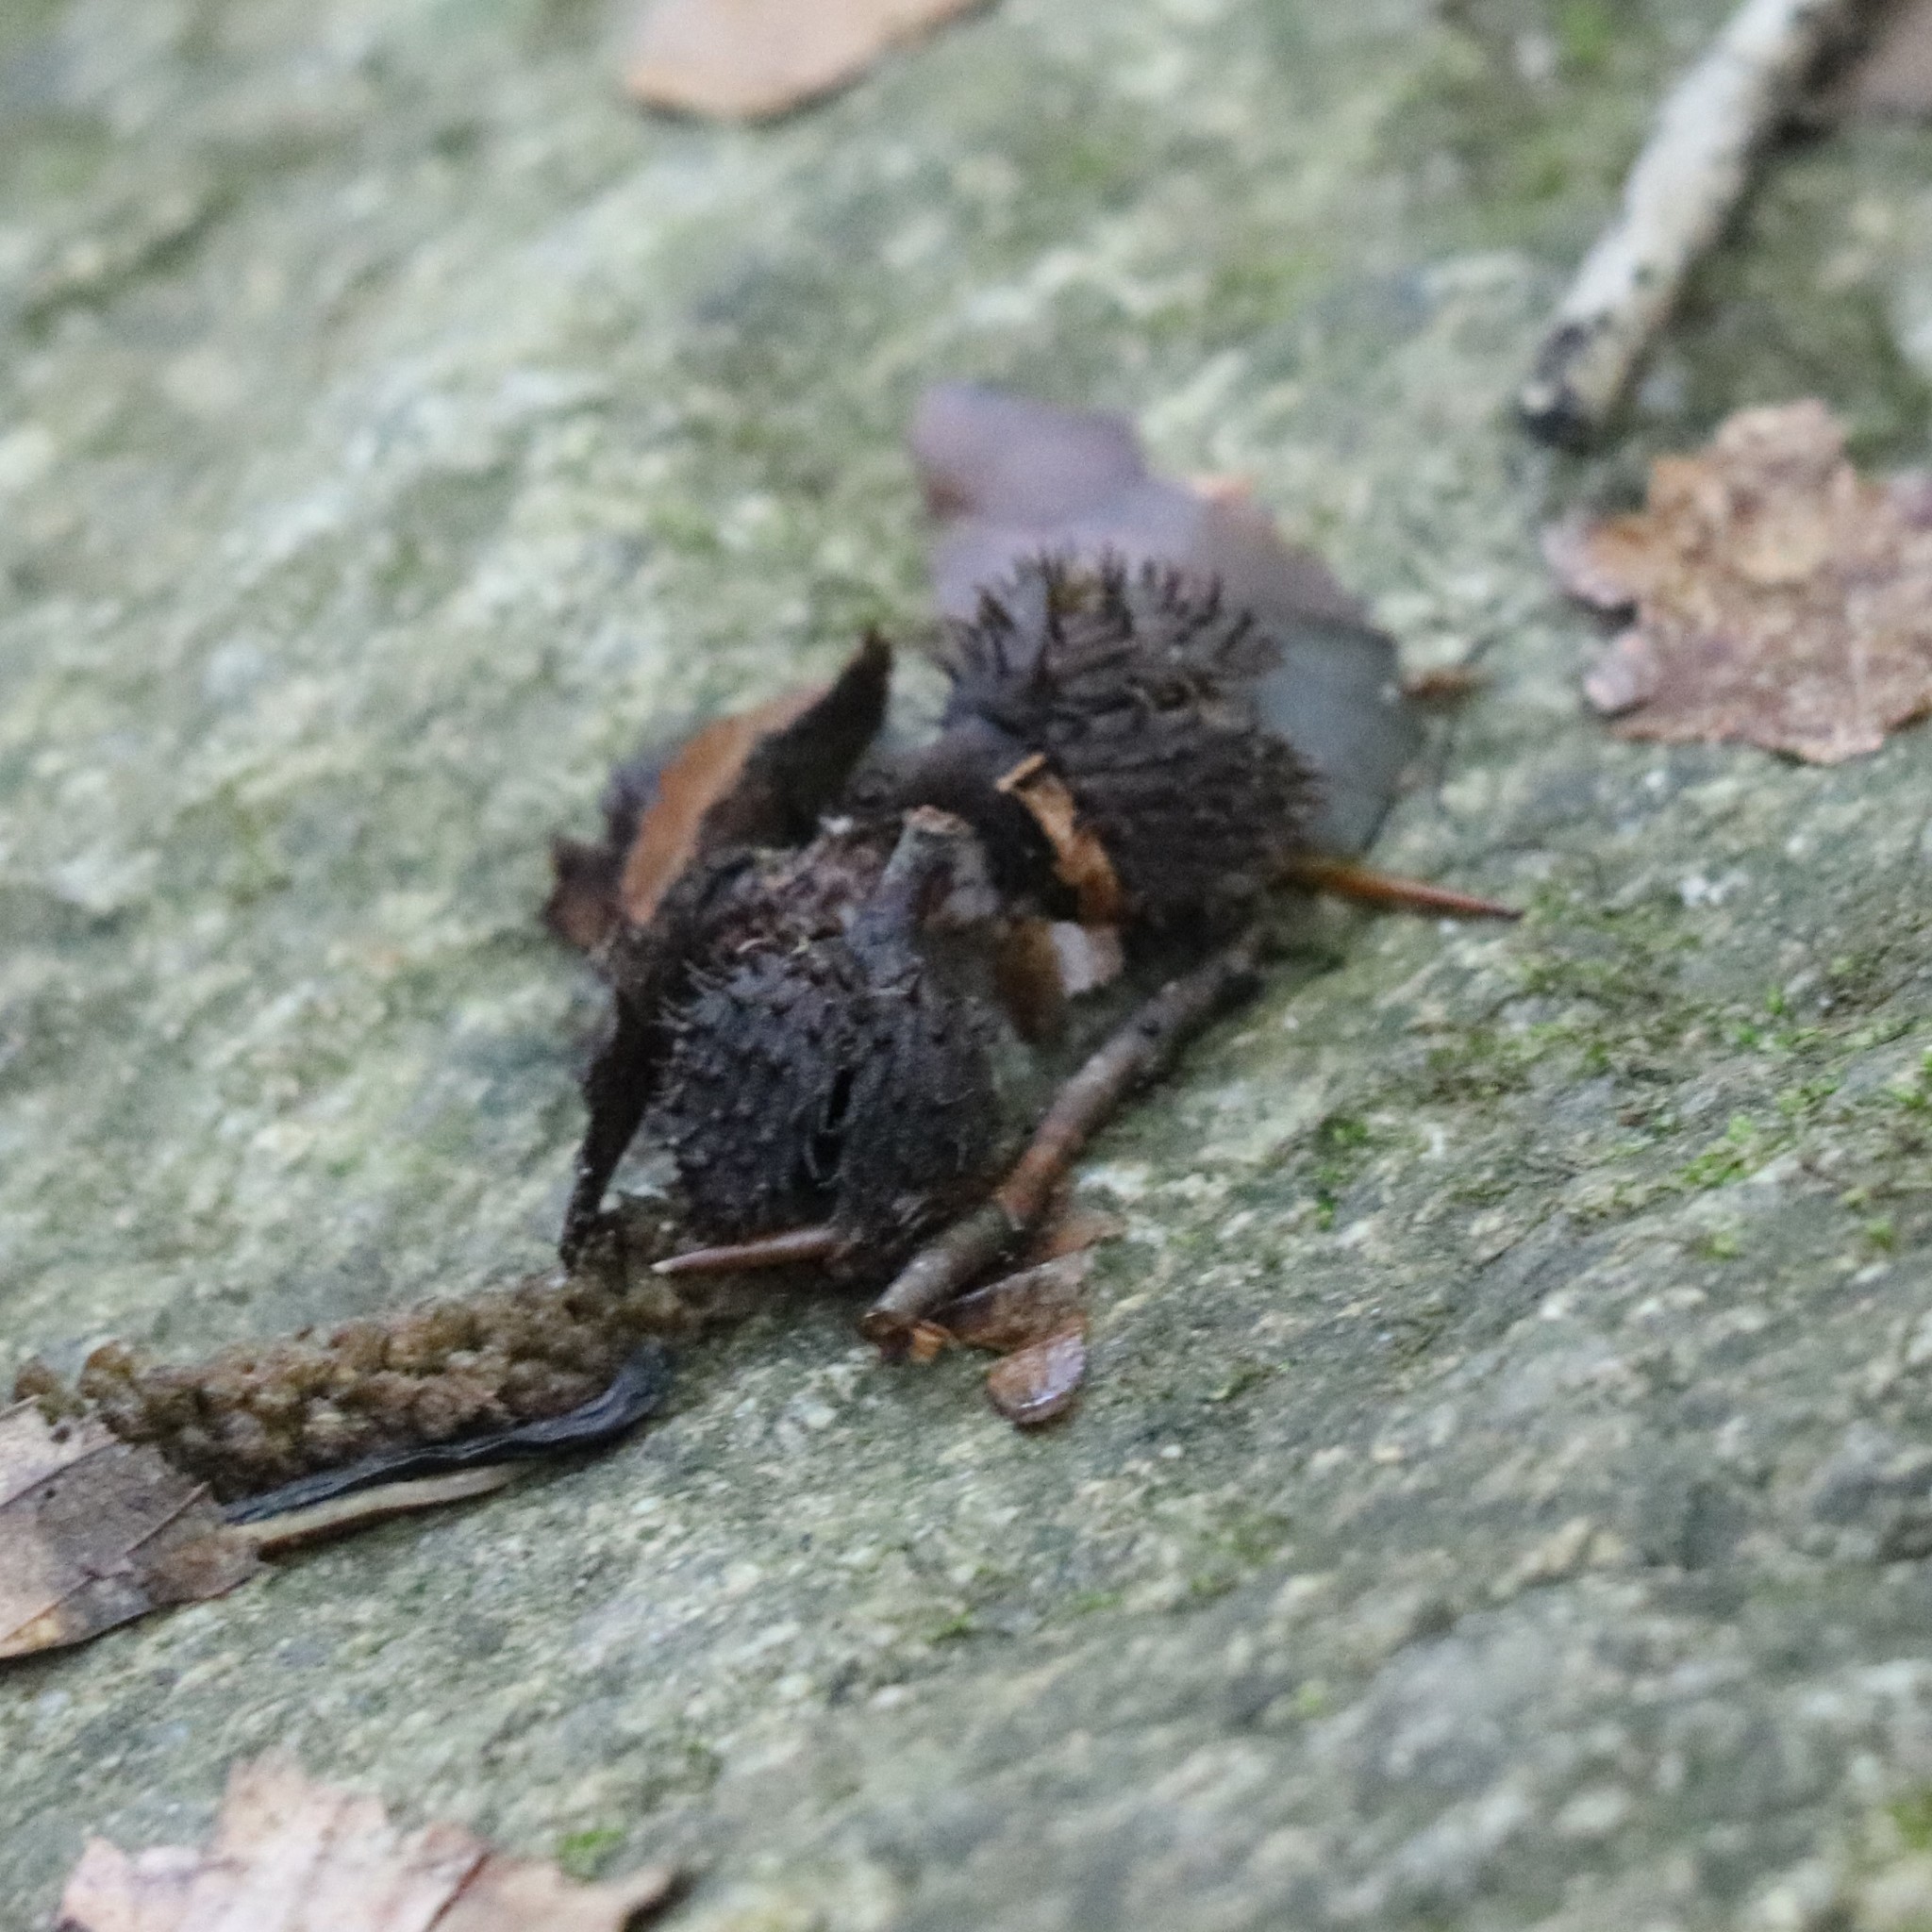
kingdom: Plantae
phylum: Tracheophyta
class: Magnoliopsida
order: Fagales
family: Fagaceae
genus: Fagus
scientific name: Fagus grandifolia
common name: American beech
